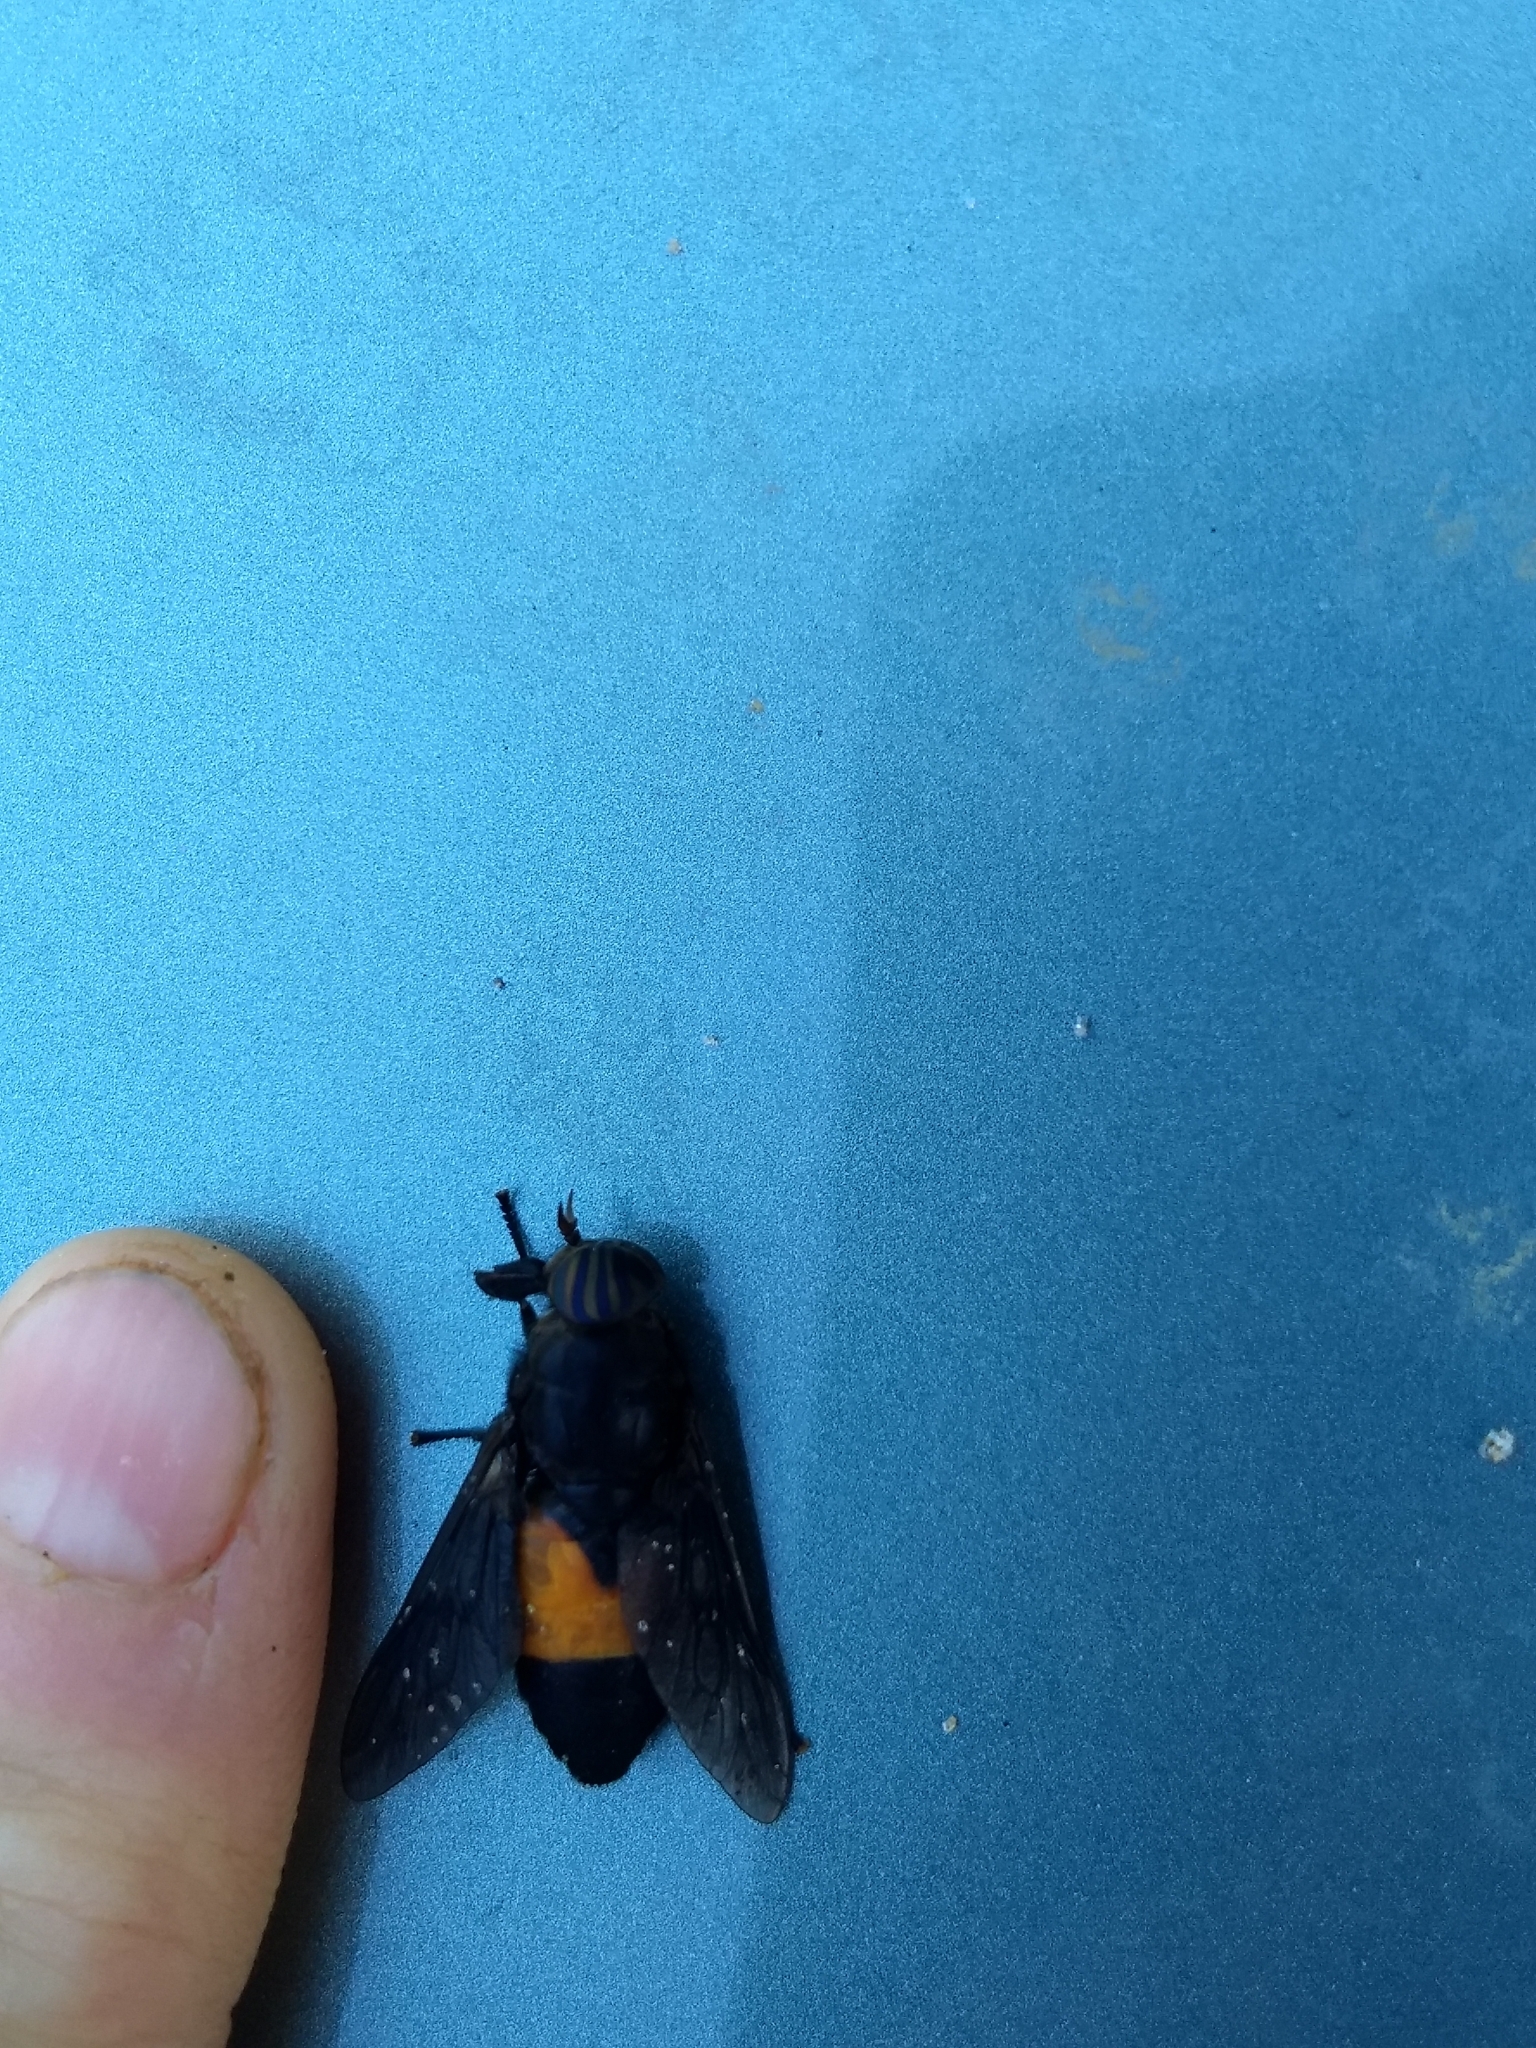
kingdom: Animalia
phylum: Arthropoda
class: Insecta
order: Diptera
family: Tabanidae
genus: Hybomitra
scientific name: Hybomitra cincta
